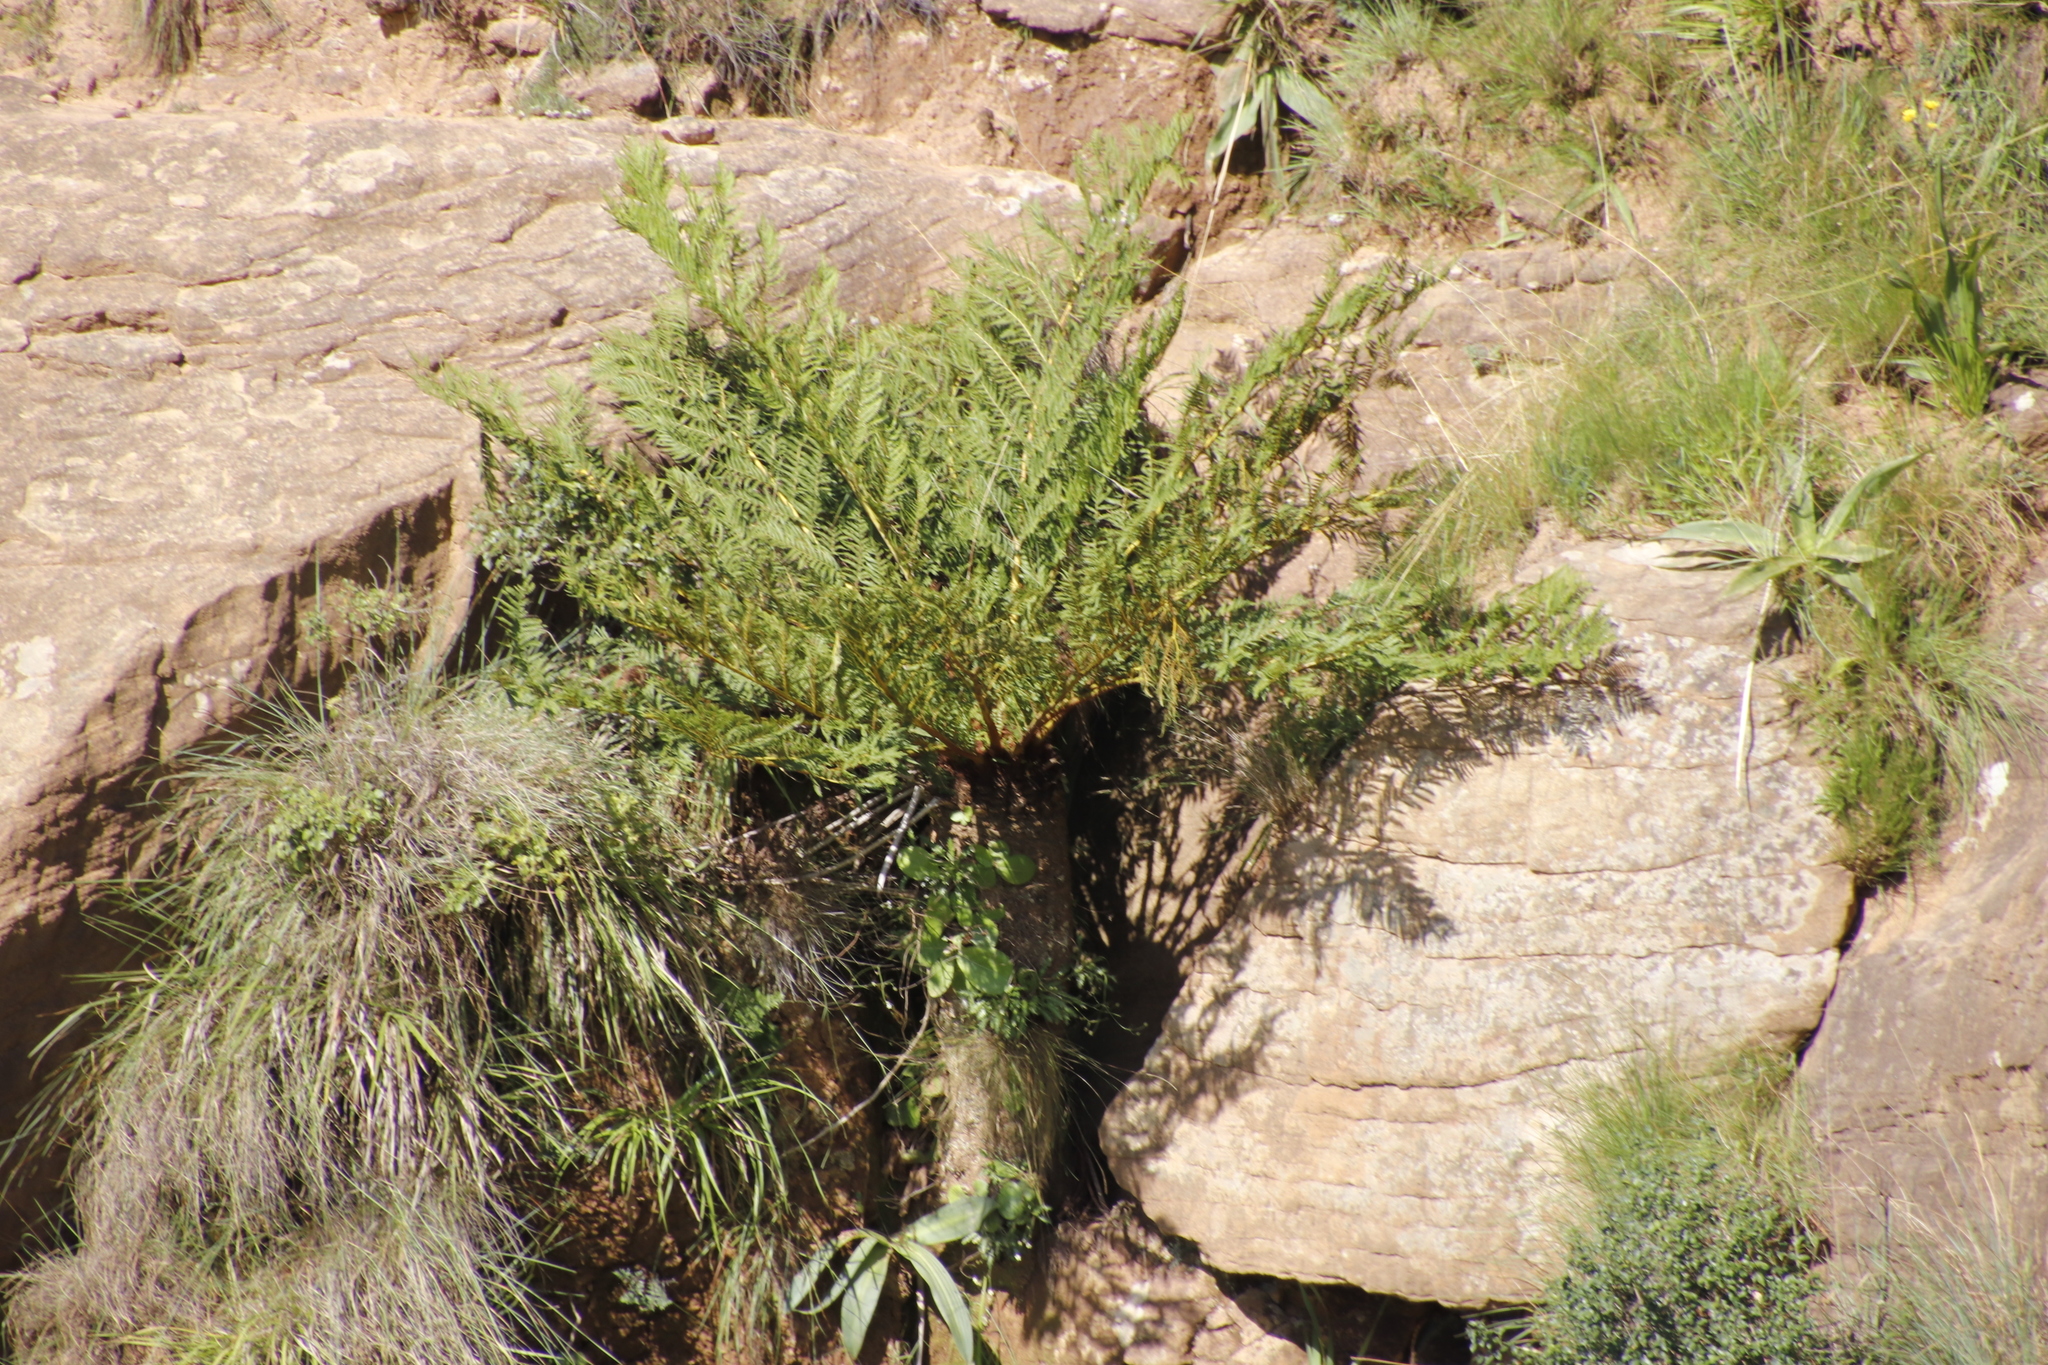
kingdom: Plantae
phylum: Tracheophyta
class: Polypodiopsida
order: Cyatheales
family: Cyatheaceae
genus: Alsophila
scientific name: Alsophila dregei
